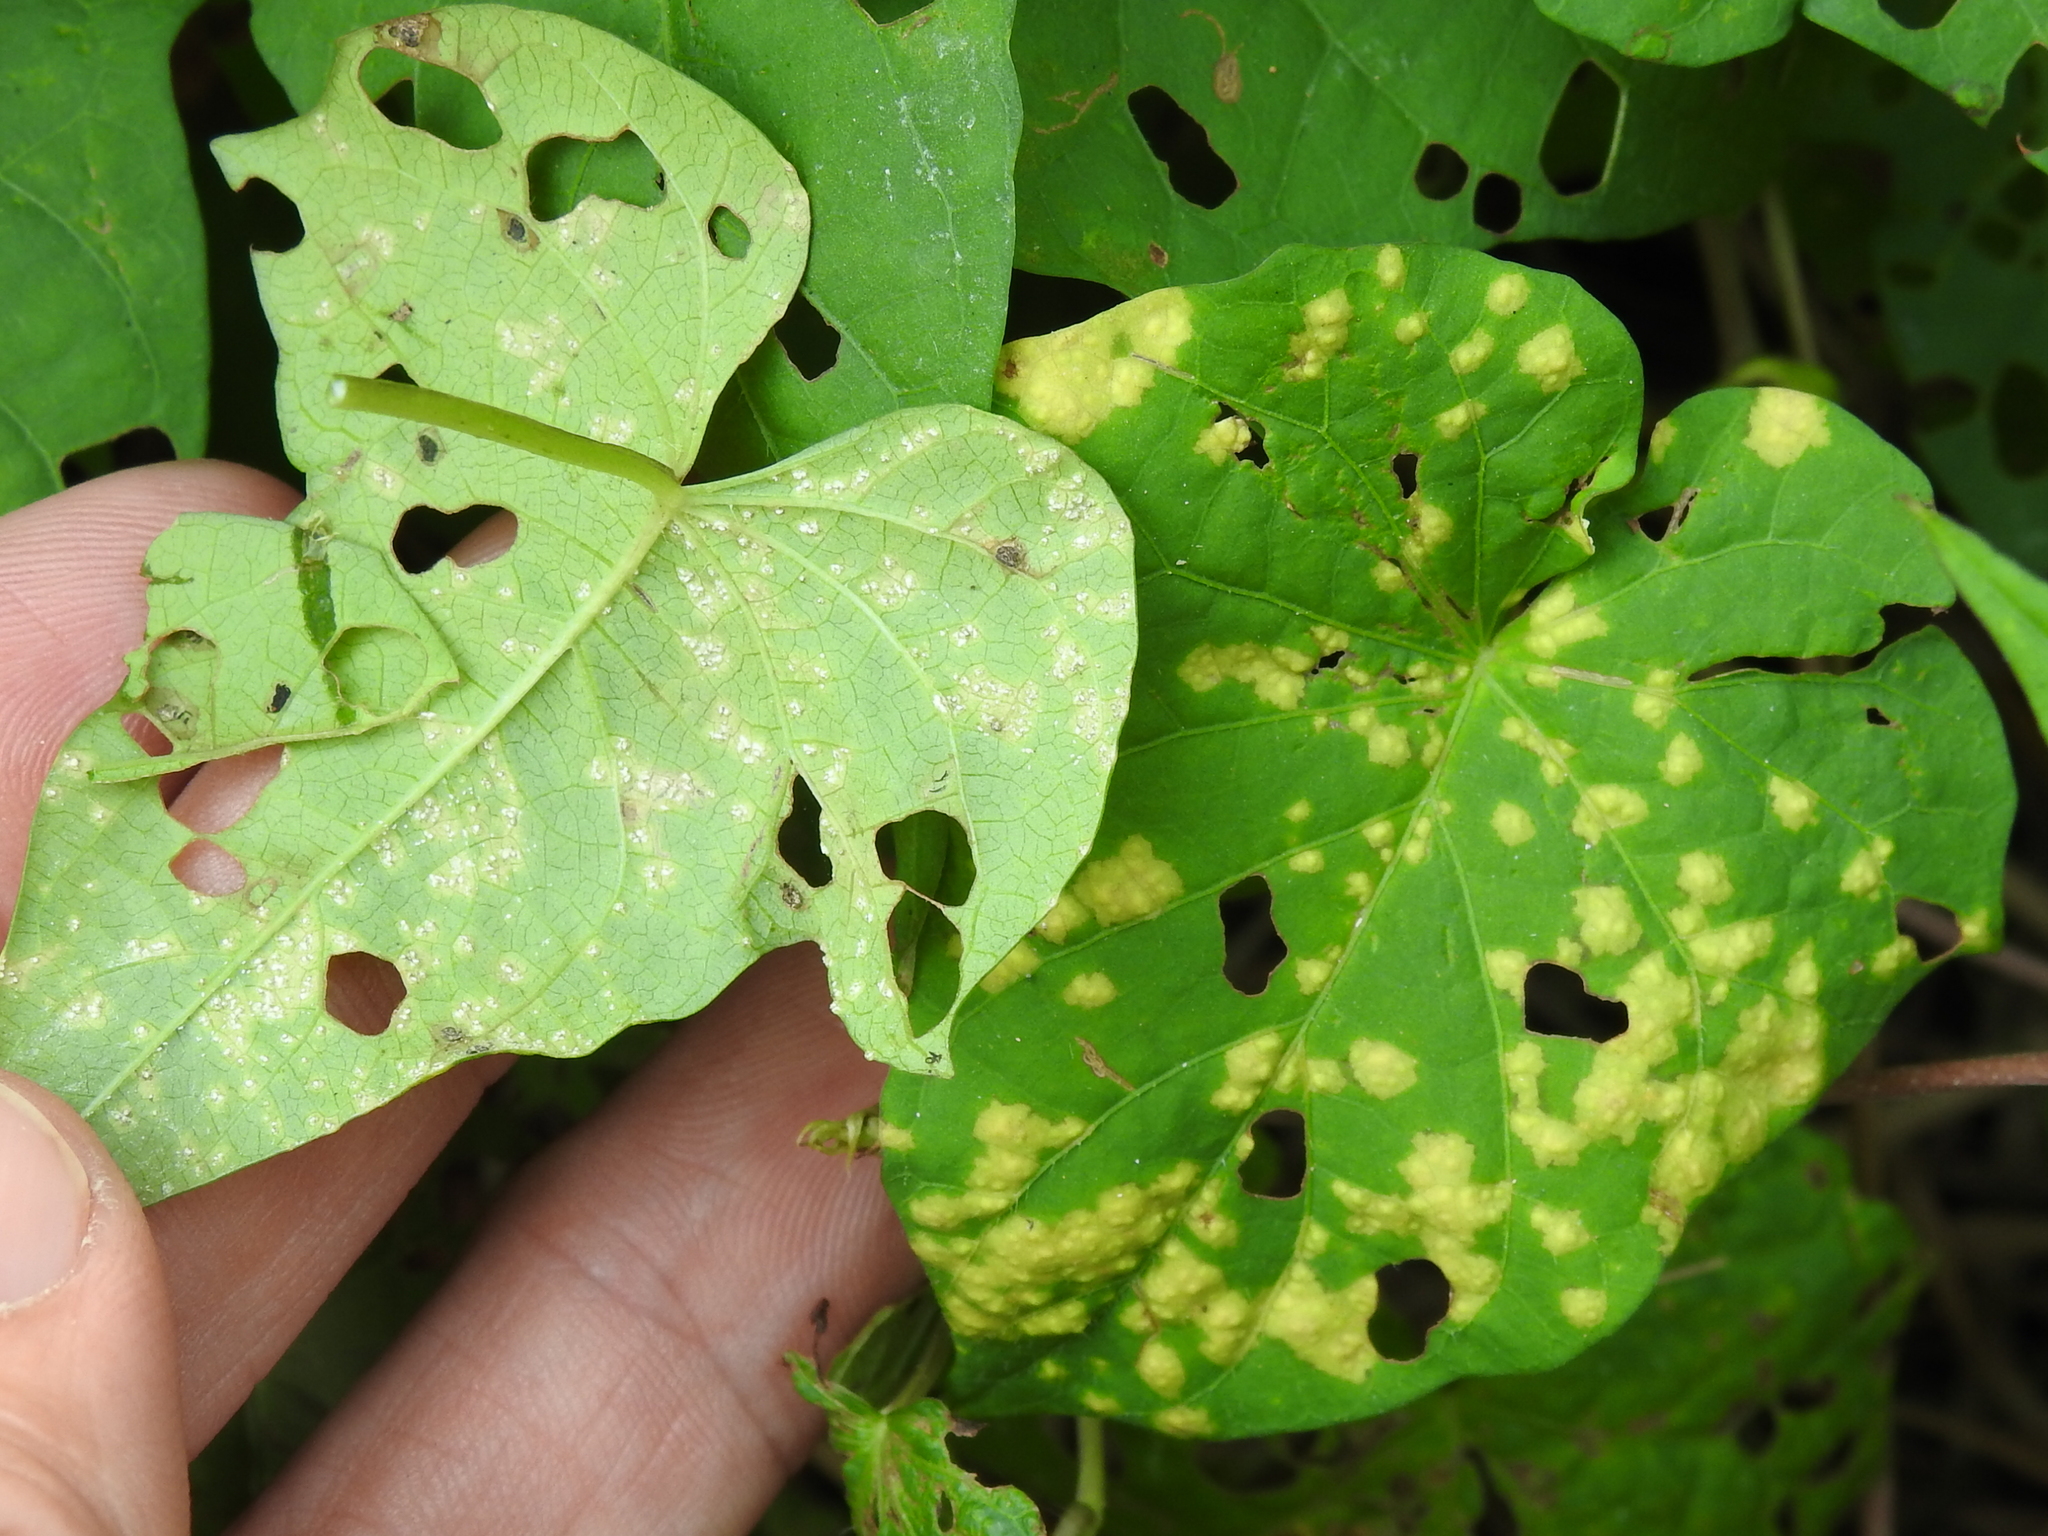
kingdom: Chromista
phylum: Oomycota
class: Peronosporea
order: Albuginales
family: Albuginaceae
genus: Albugo
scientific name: Albugo ipomoeae-panduratae
